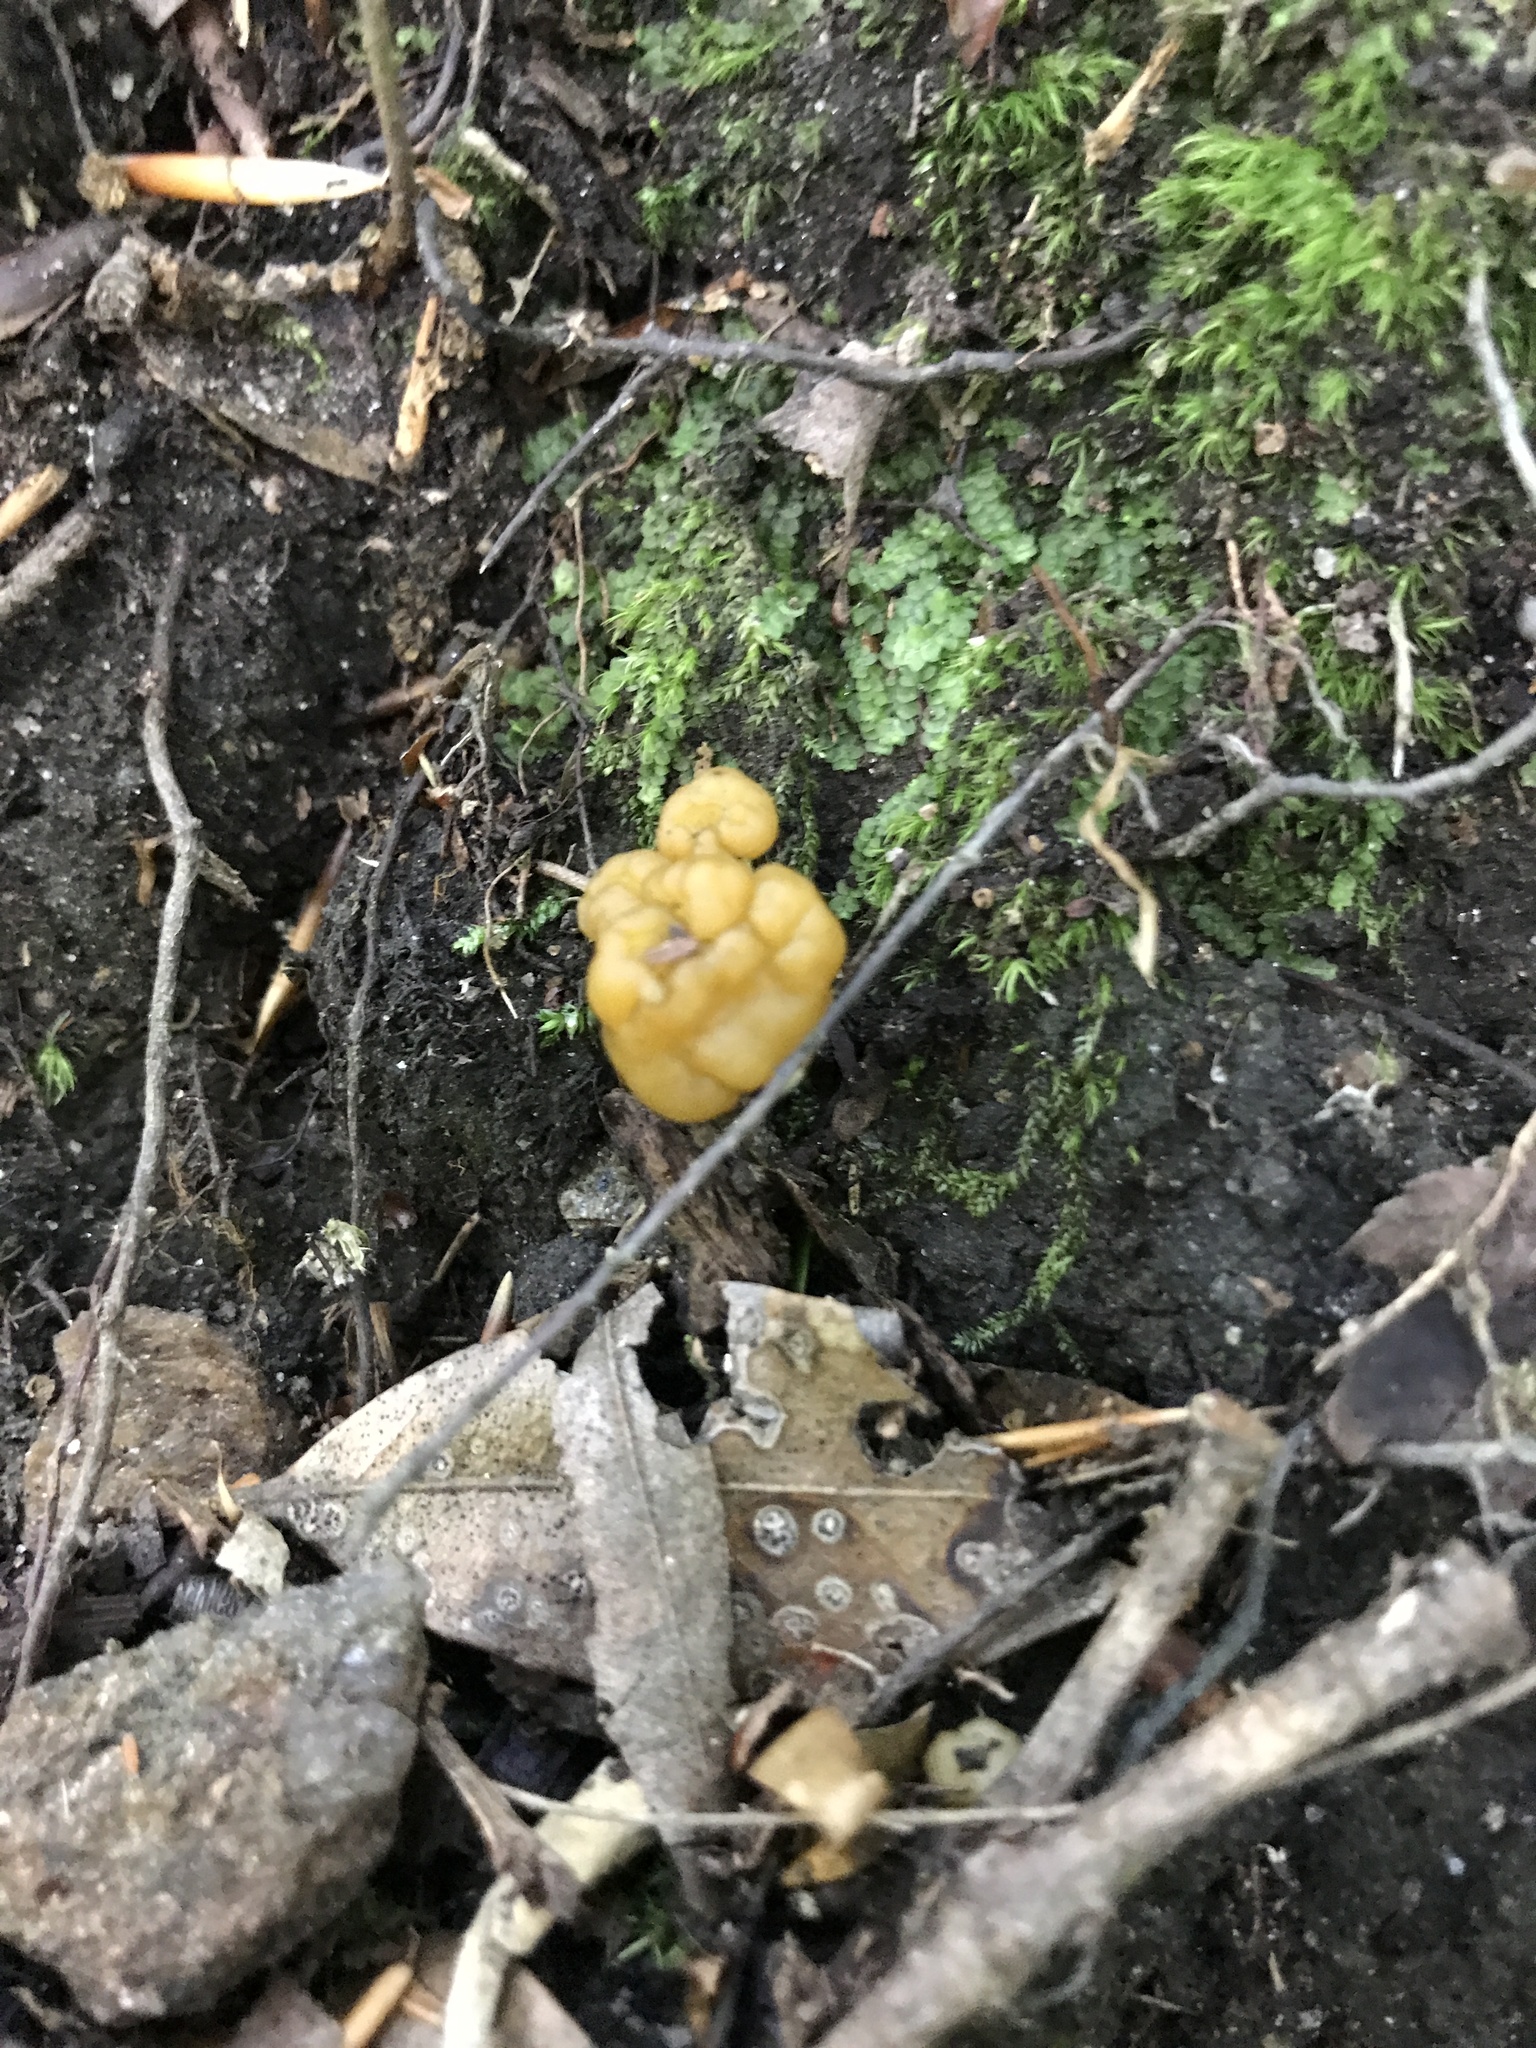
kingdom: Fungi
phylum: Ascomycota
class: Leotiomycetes
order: Leotiales
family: Leotiaceae
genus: Leotia
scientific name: Leotia lubrica
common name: Jellybaby
